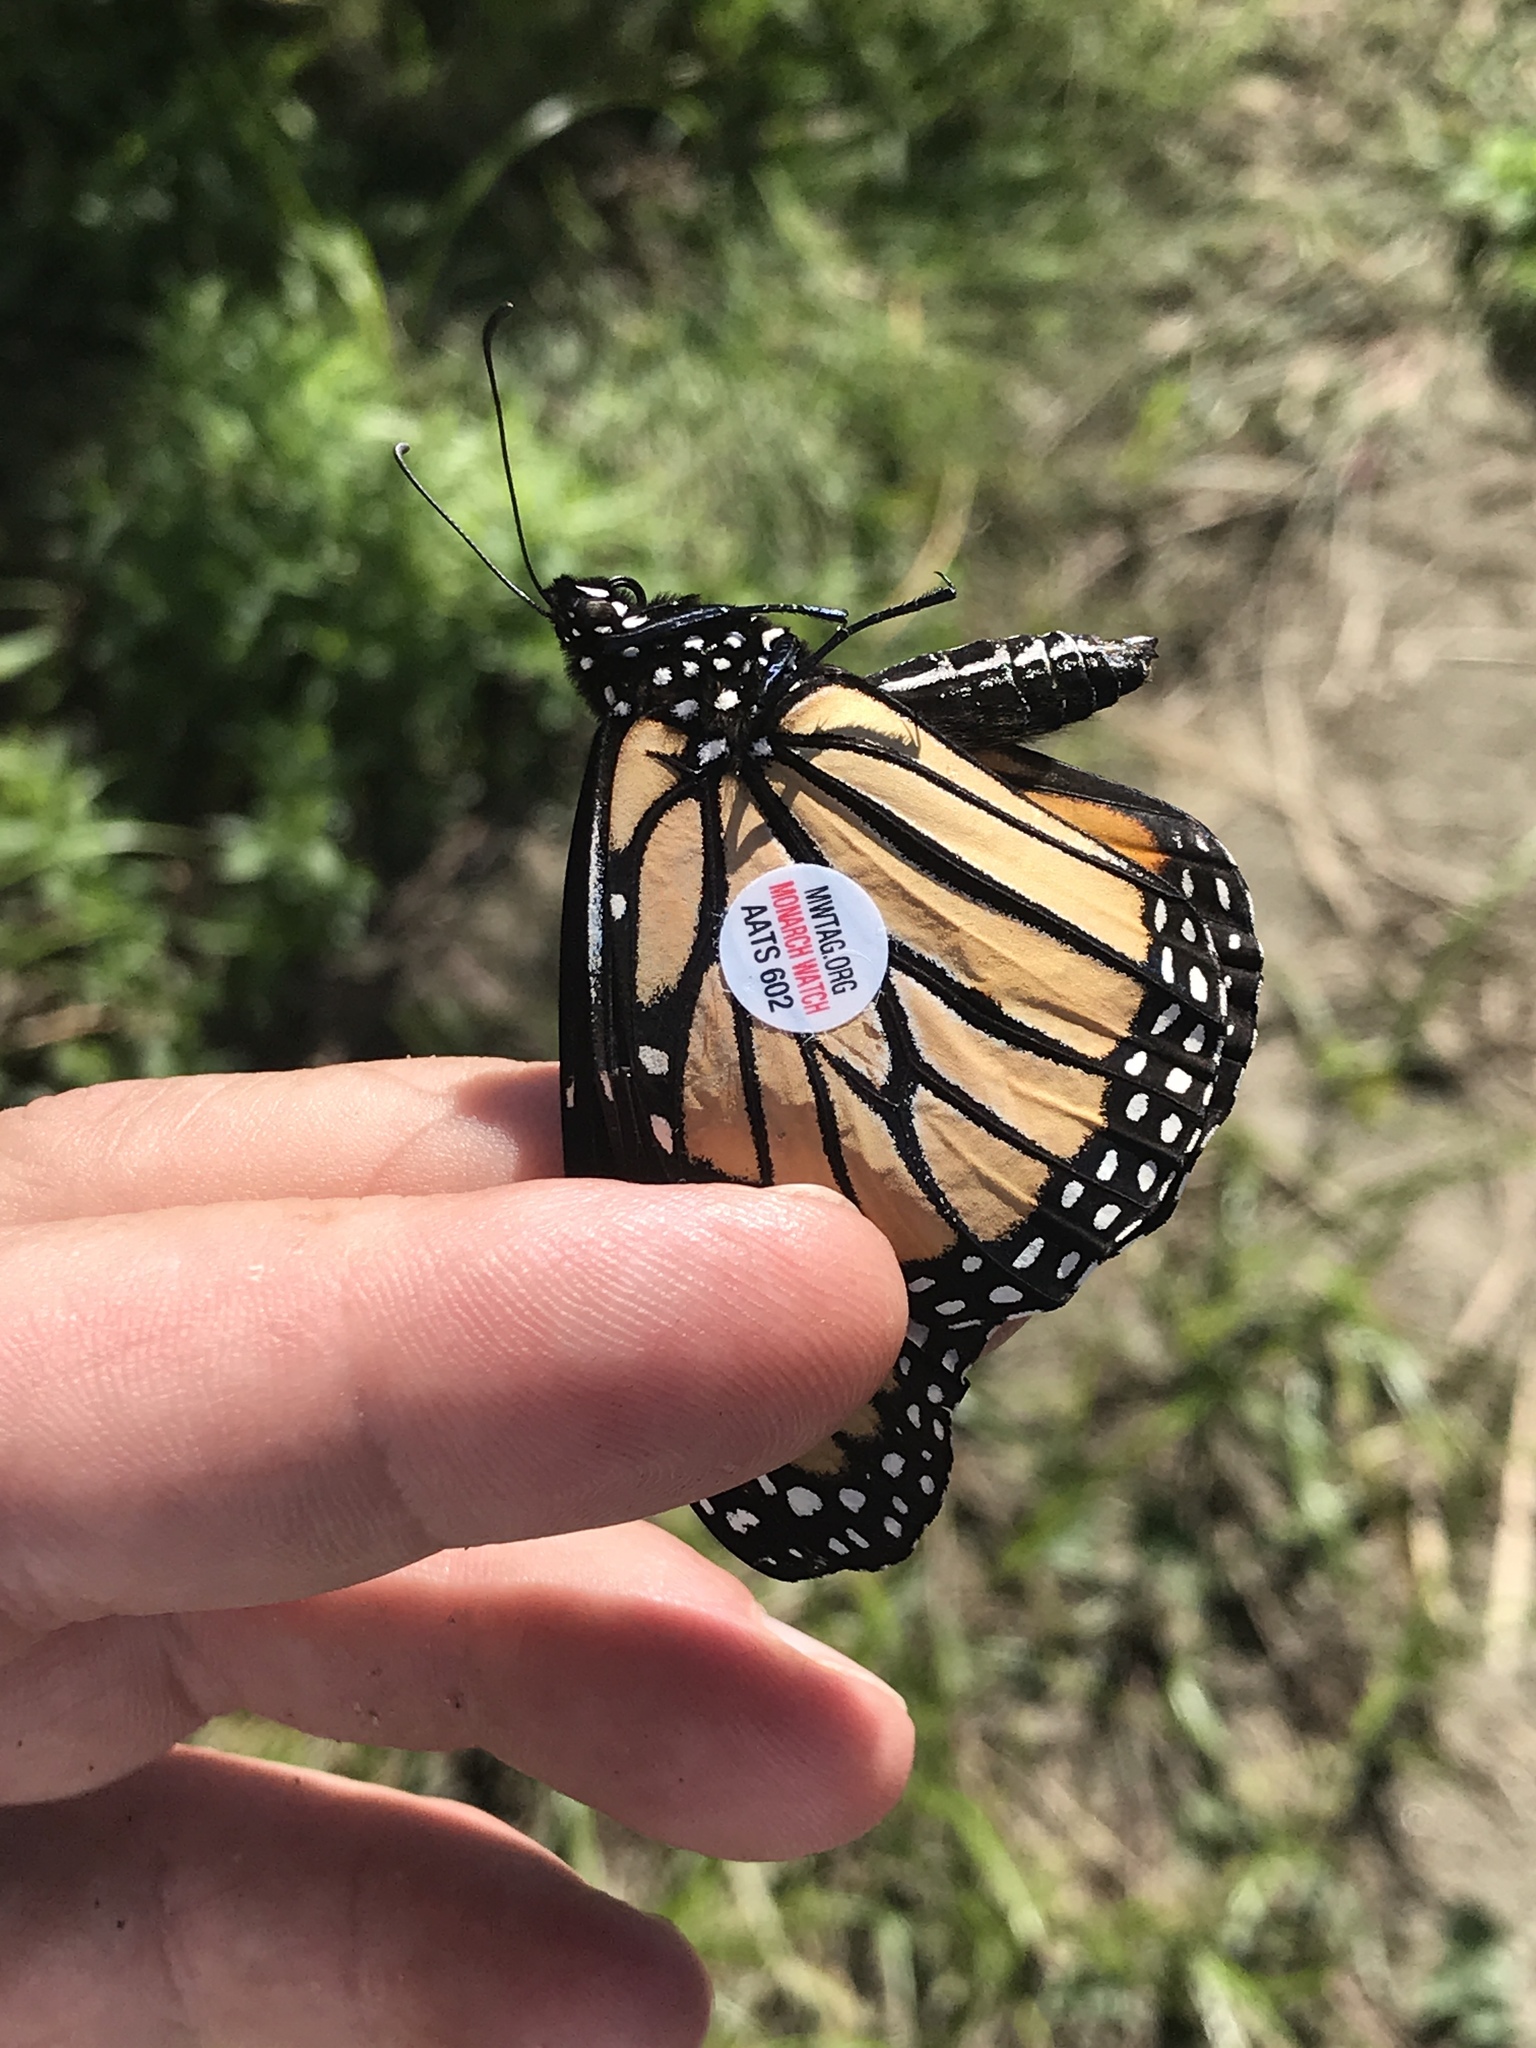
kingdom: Animalia
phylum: Arthropoda
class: Insecta
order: Lepidoptera
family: Nymphalidae
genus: Danaus
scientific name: Danaus plexippus
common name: Monarch
